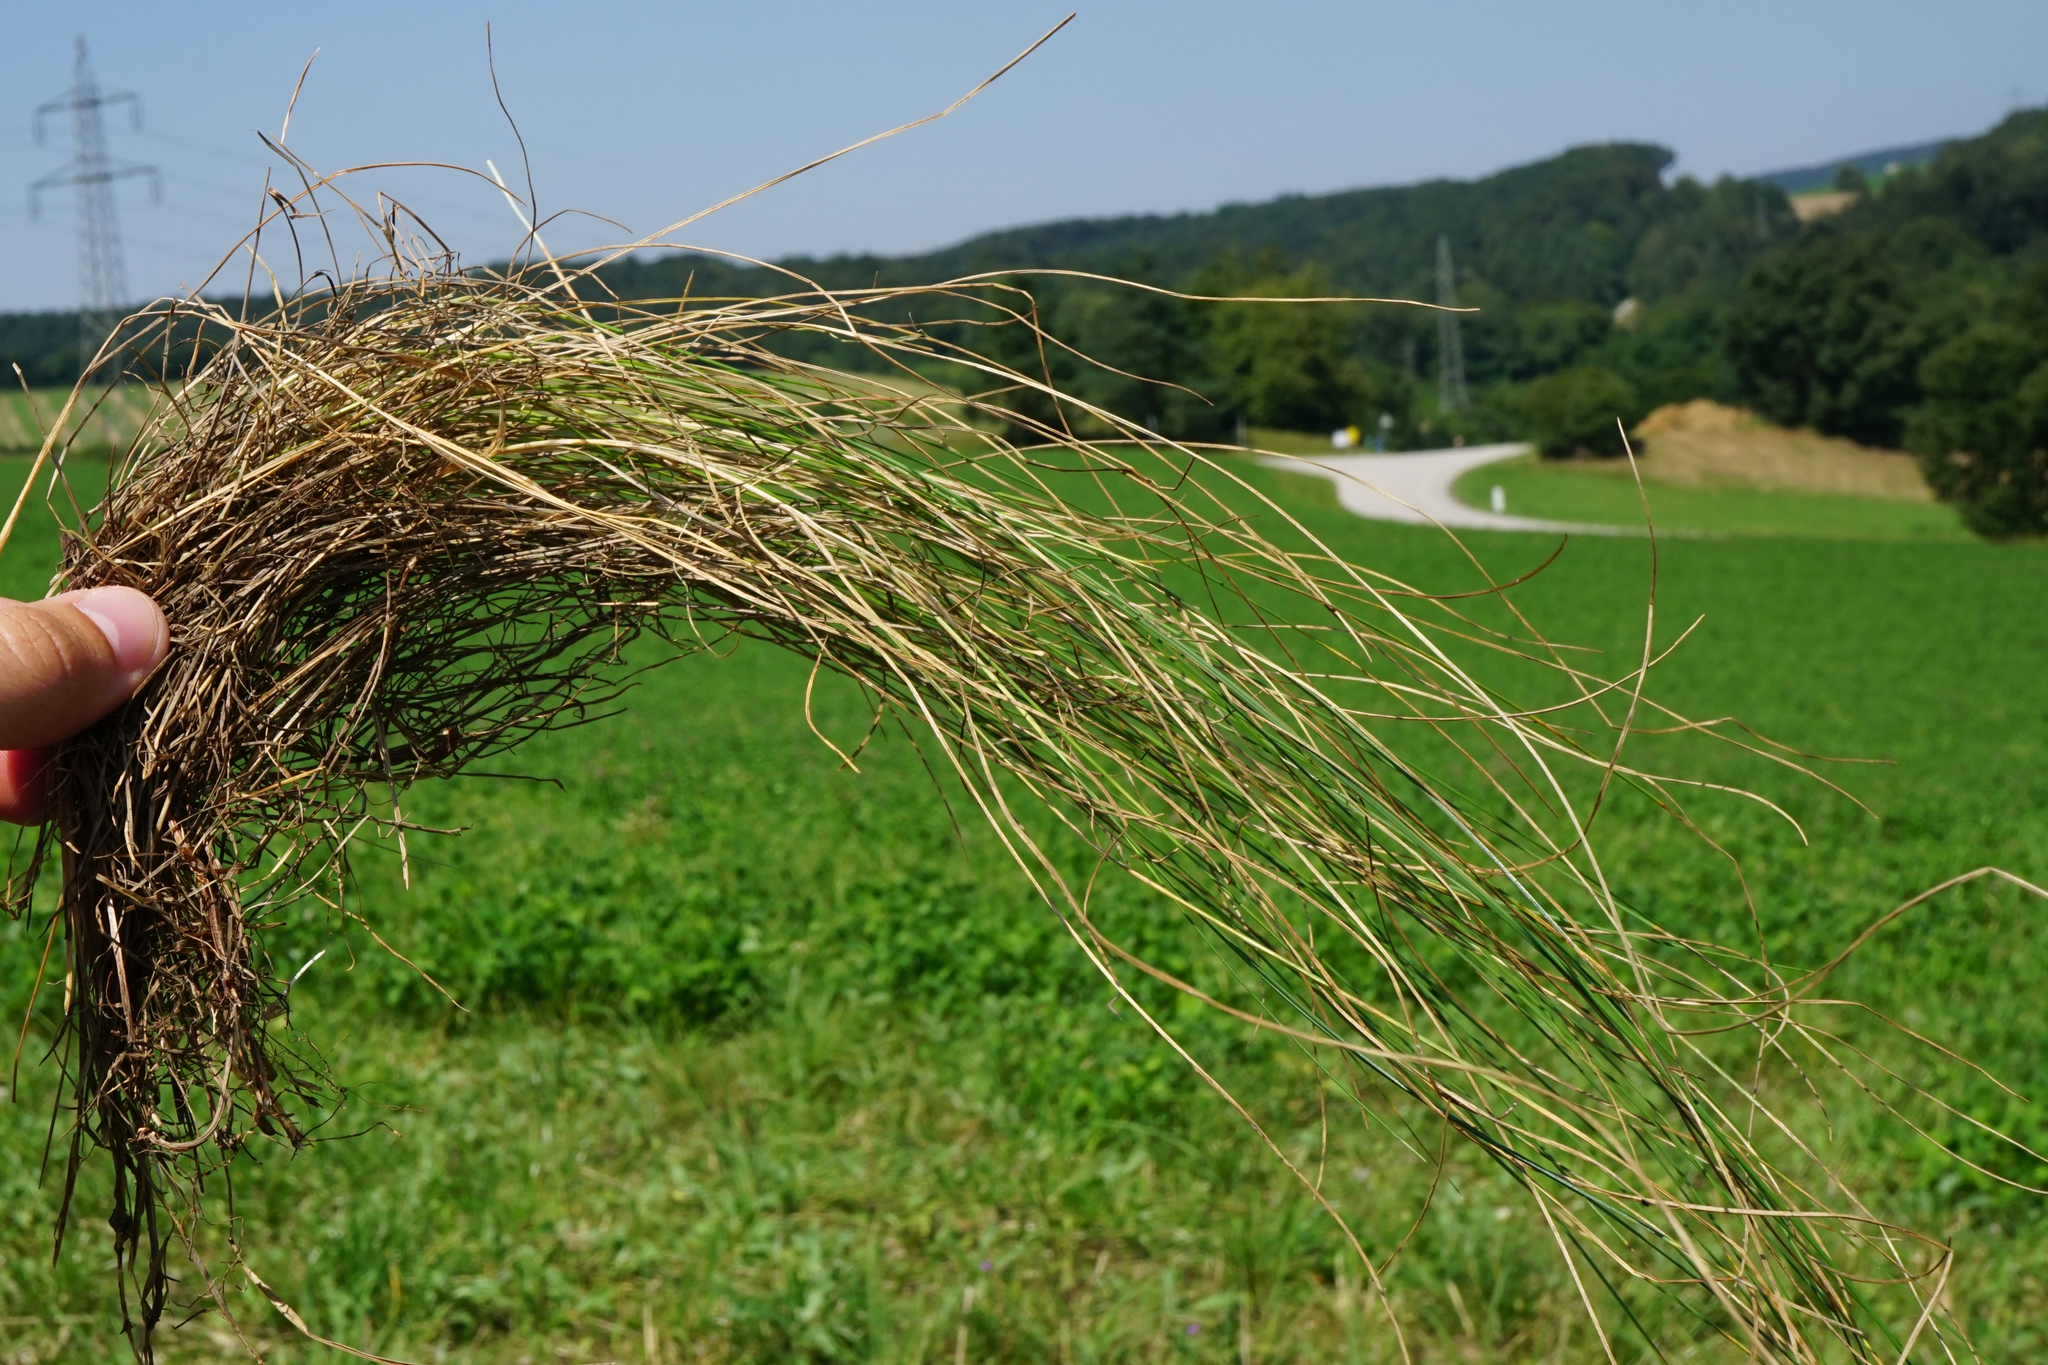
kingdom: Plantae
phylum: Tracheophyta
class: Liliopsida
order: Poales
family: Poaceae
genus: Festuca
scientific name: Festuca rubra
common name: Red fescue
